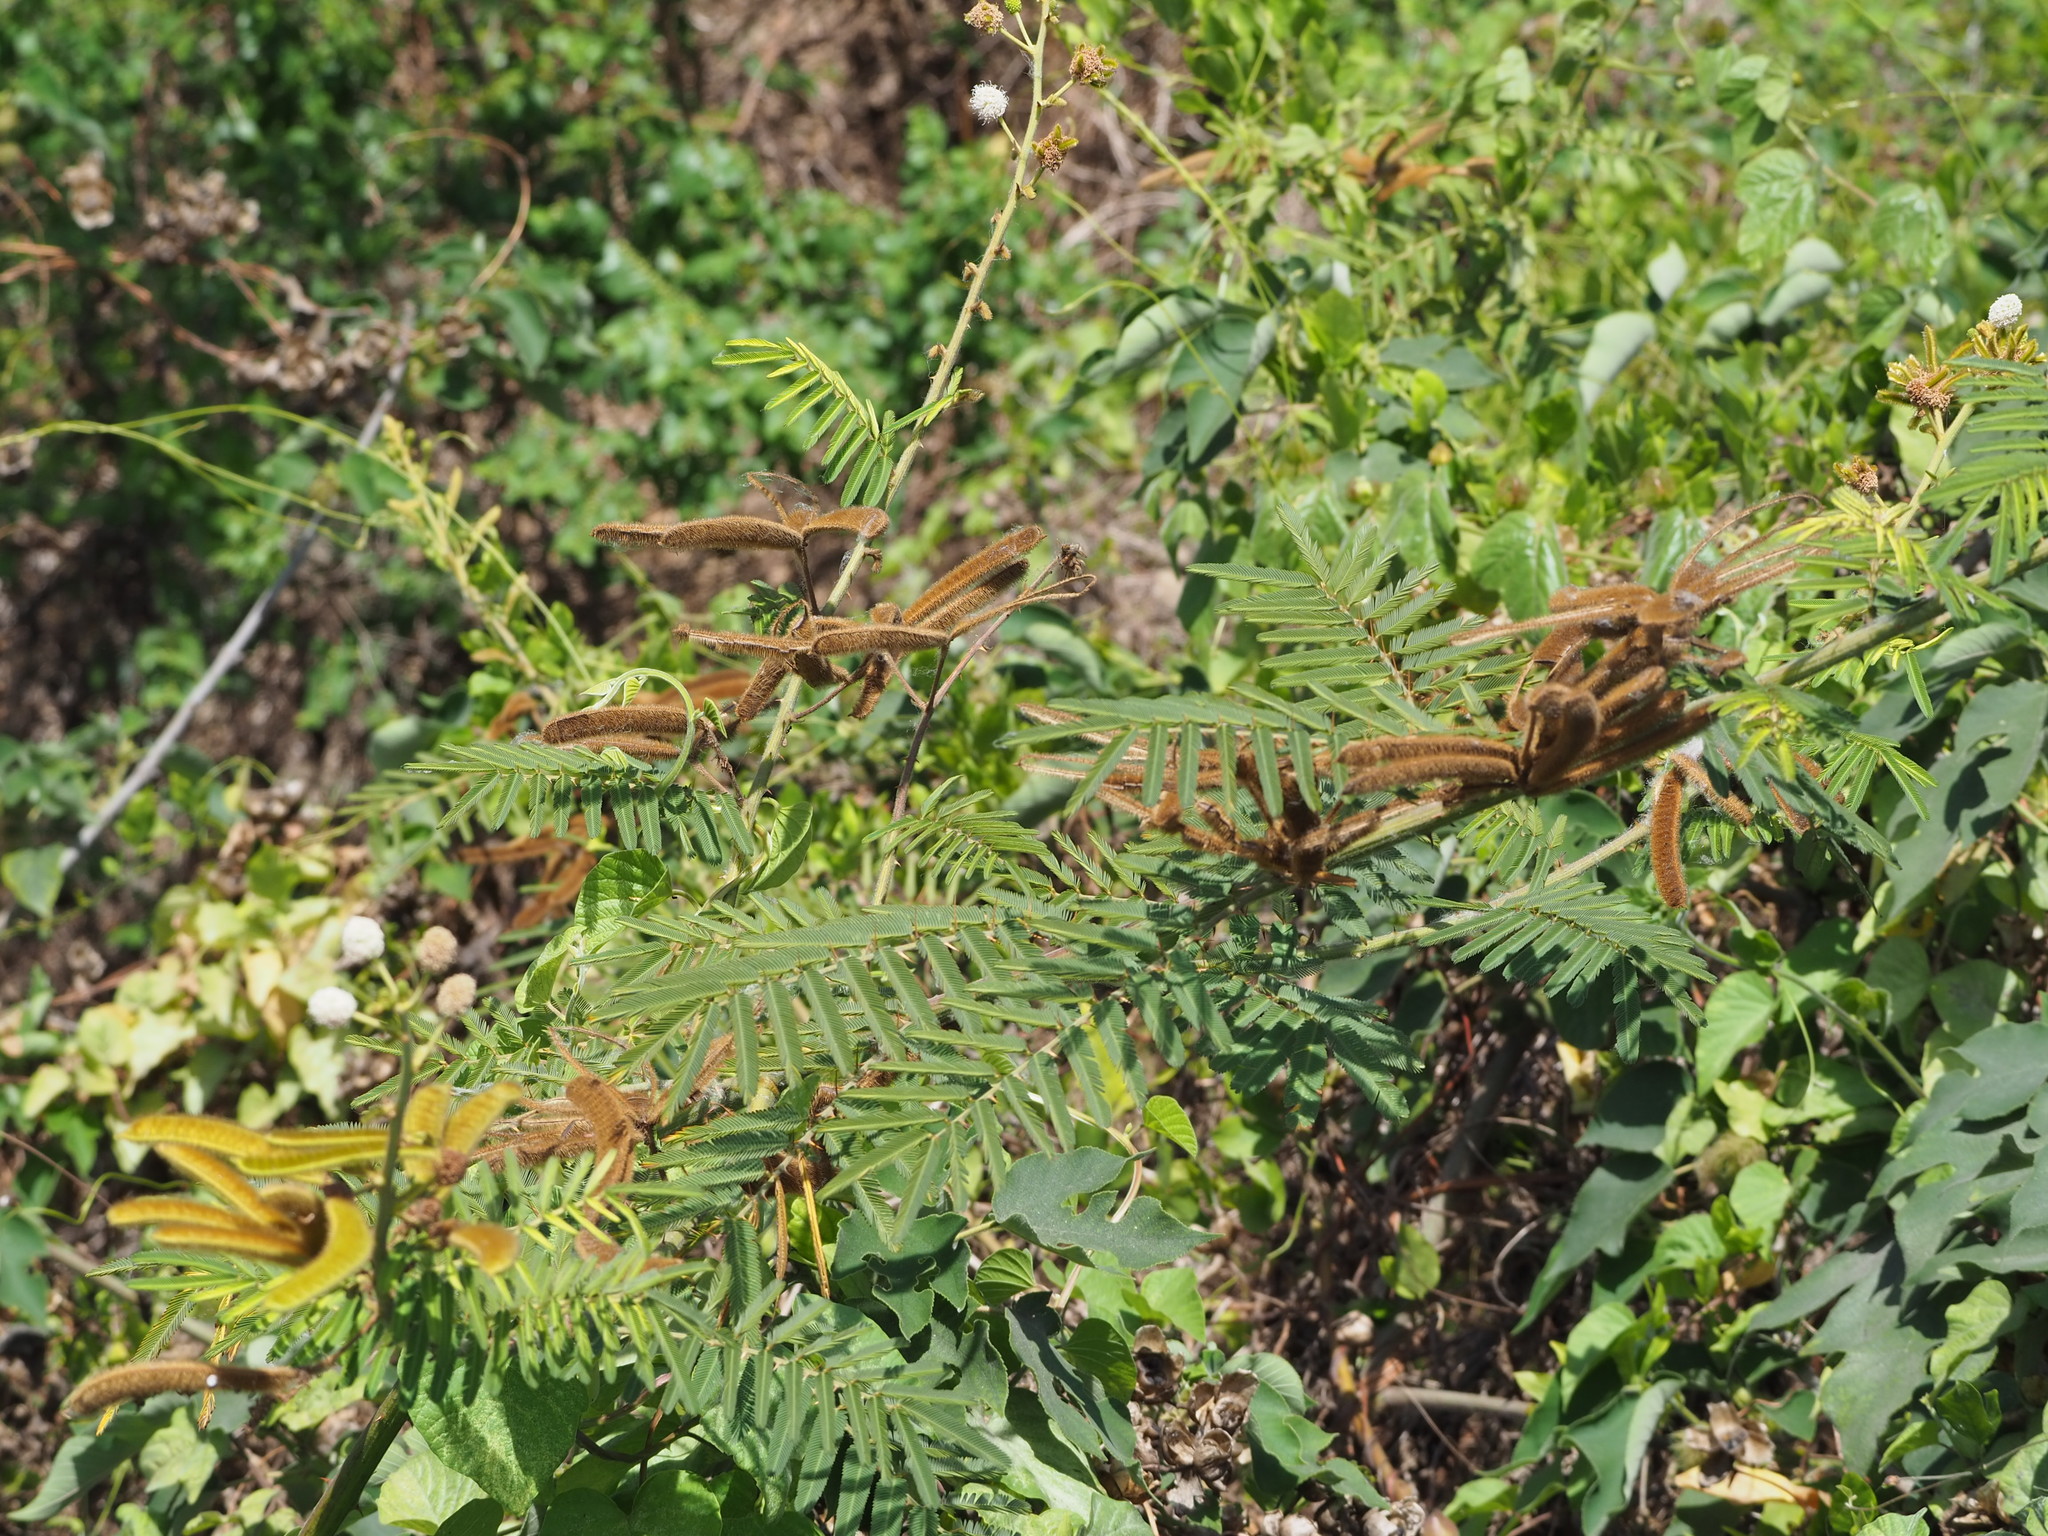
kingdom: Plantae
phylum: Tracheophyta
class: Magnoliopsida
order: Fabales
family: Fabaceae
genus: Mimosa
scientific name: Mimosa pigra
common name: Black mimosa
